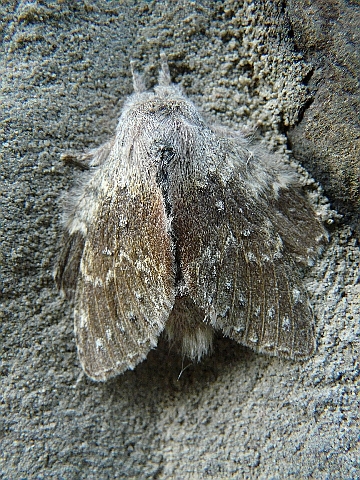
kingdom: Animalia
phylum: Arthropoda
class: Insecta
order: Lepidoptera
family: Notodontidae
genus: Stauropus
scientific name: Stauropus fagi
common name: Lobster moth
